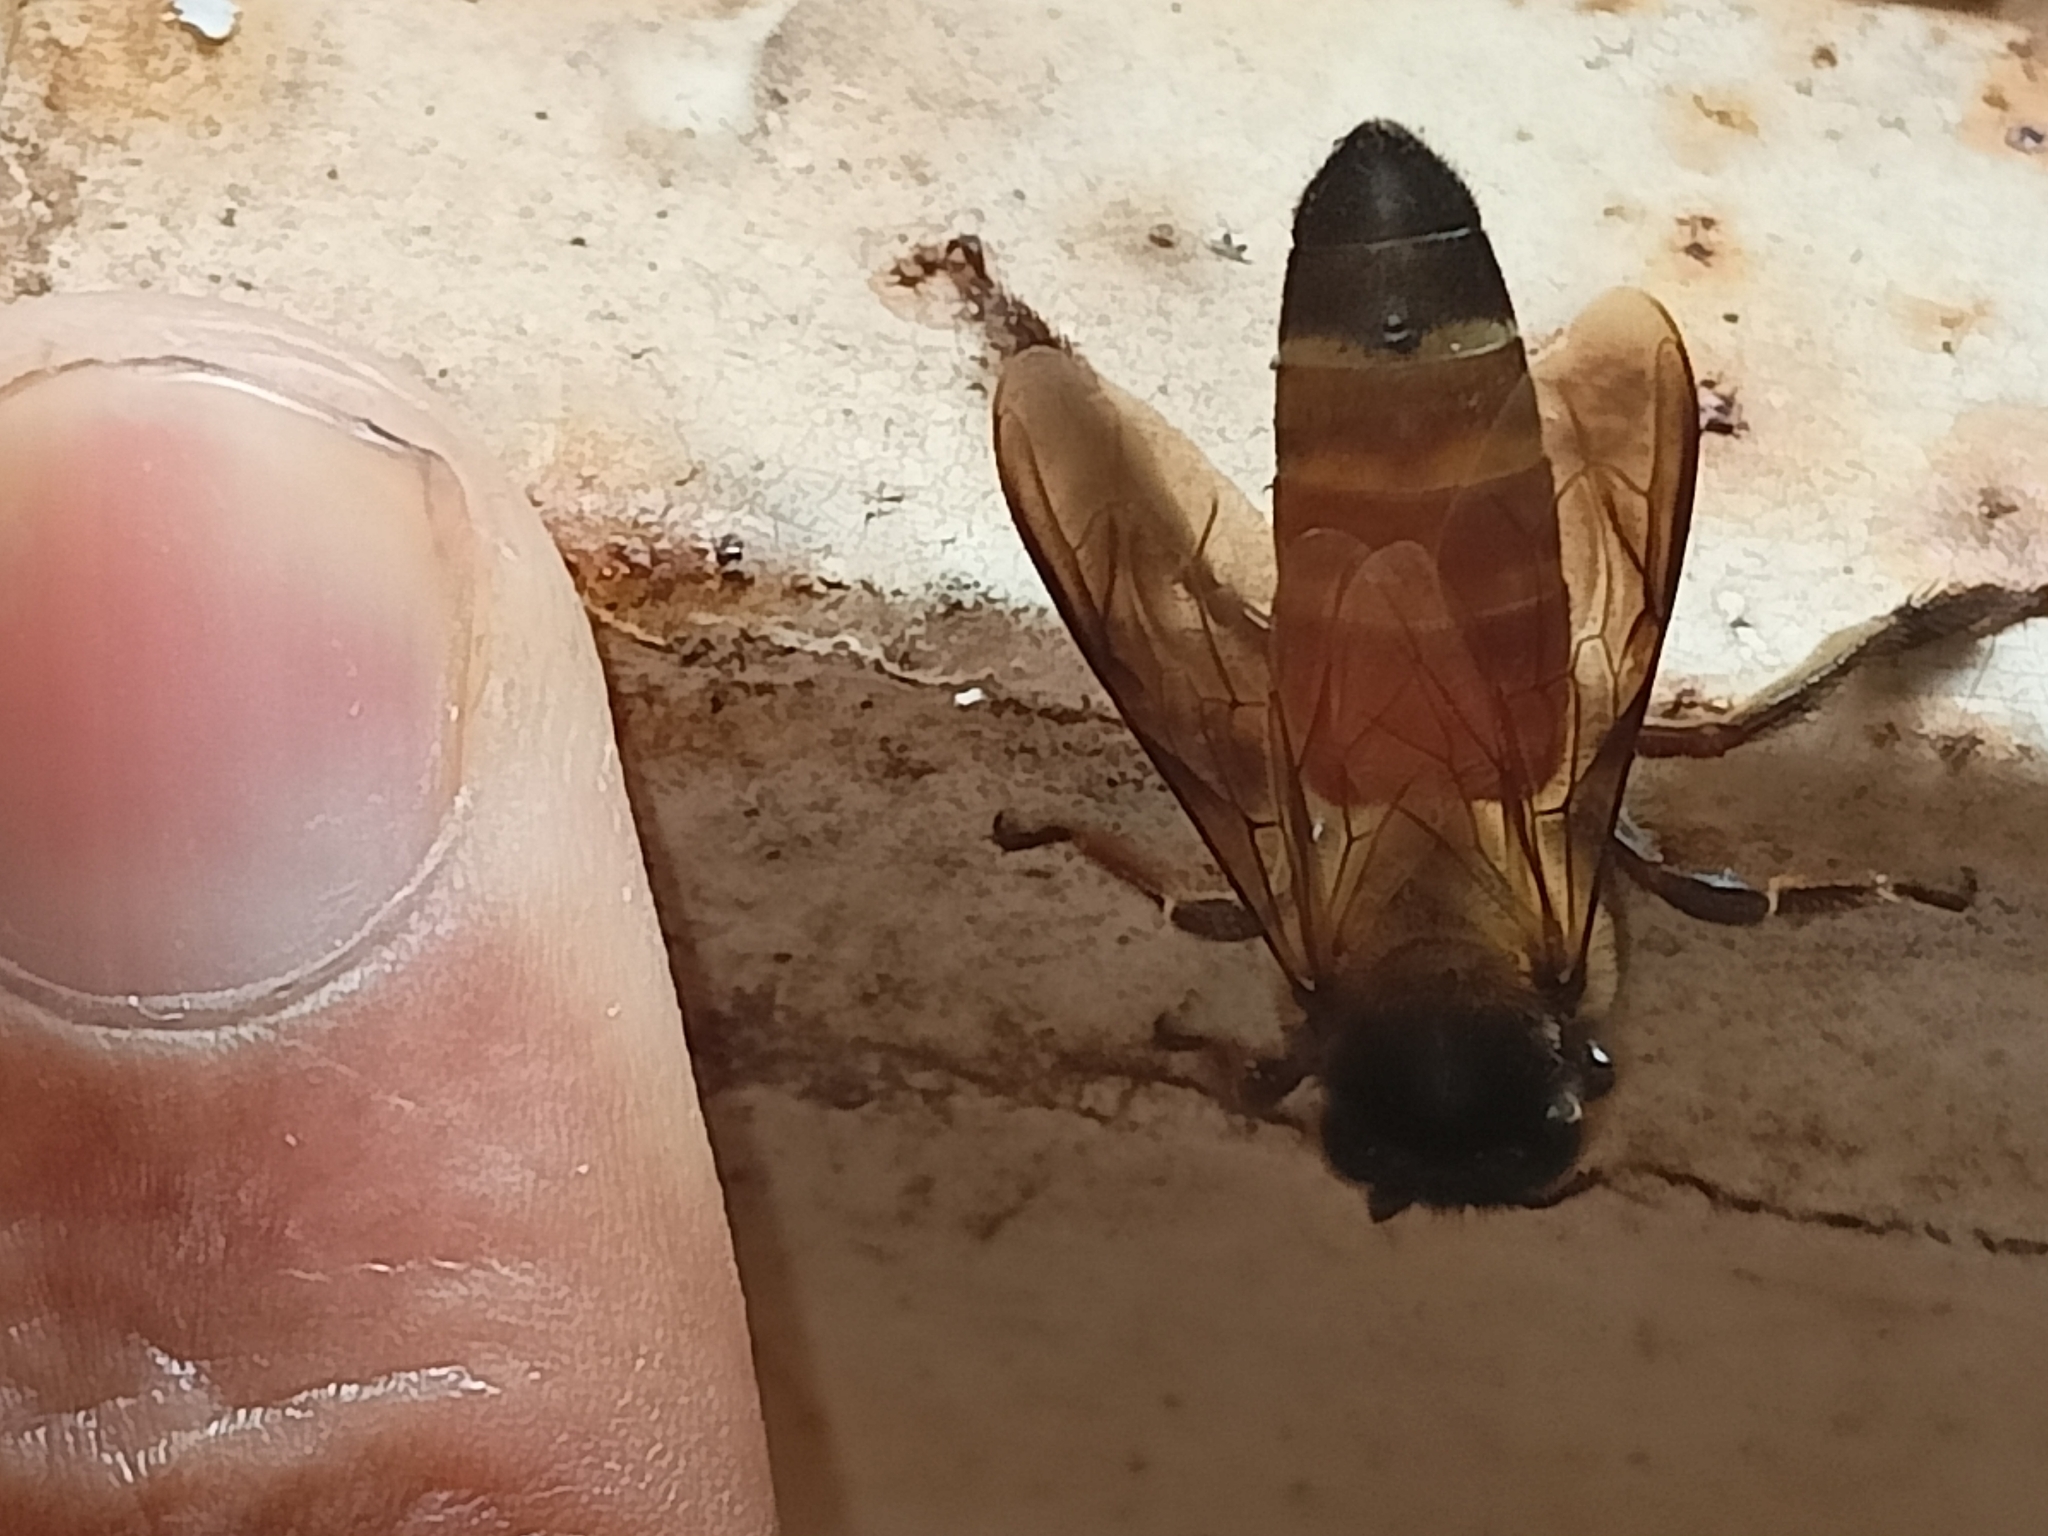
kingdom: Animalia
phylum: Arthropoda
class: Insecta
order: Hymenoptera
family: Apidae
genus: Apis
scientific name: Apis dorsata
